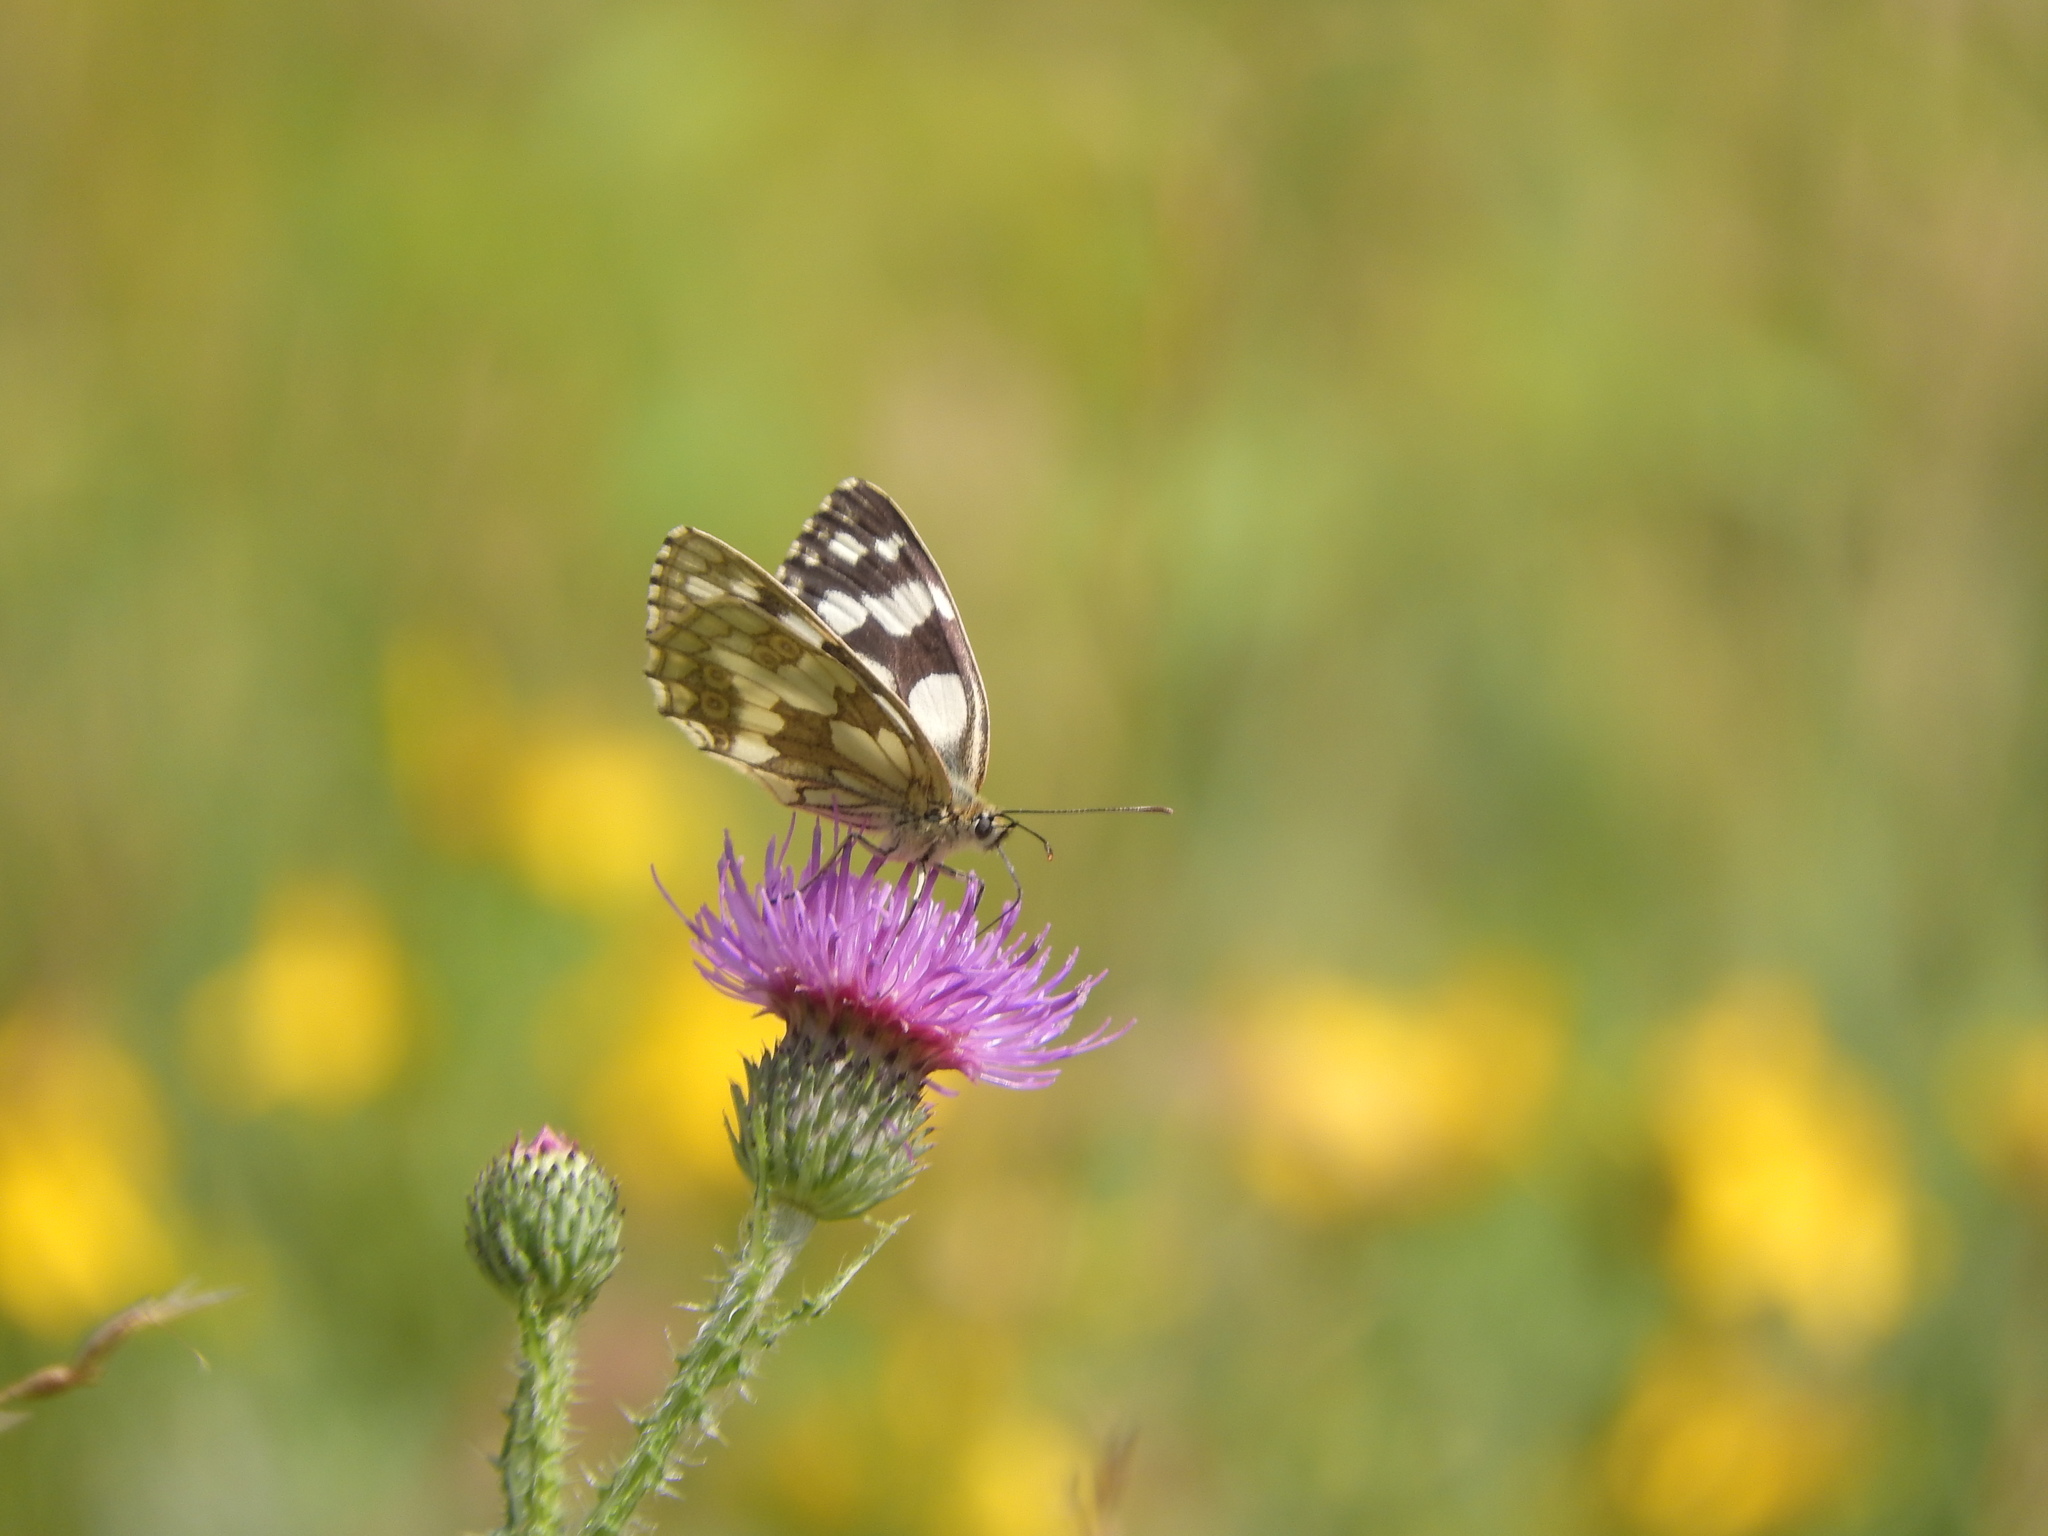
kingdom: Animalia
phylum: Arthropoda
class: Insecta
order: Lepidoptera
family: Nymphalidae
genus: Melanargia
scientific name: Melanargia galathea
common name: Marbled white
